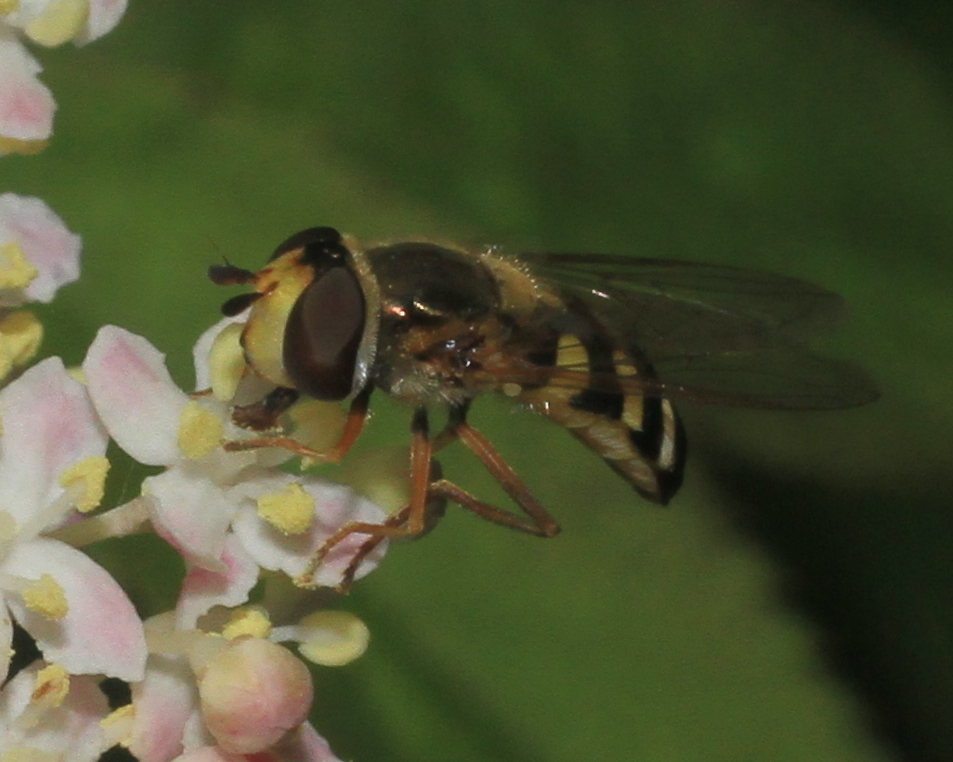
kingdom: Animalia
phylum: Arthropoda
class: Insecta
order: Diptera
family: Syrphidae
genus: Eupeodes
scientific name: Eupeodes corollae
